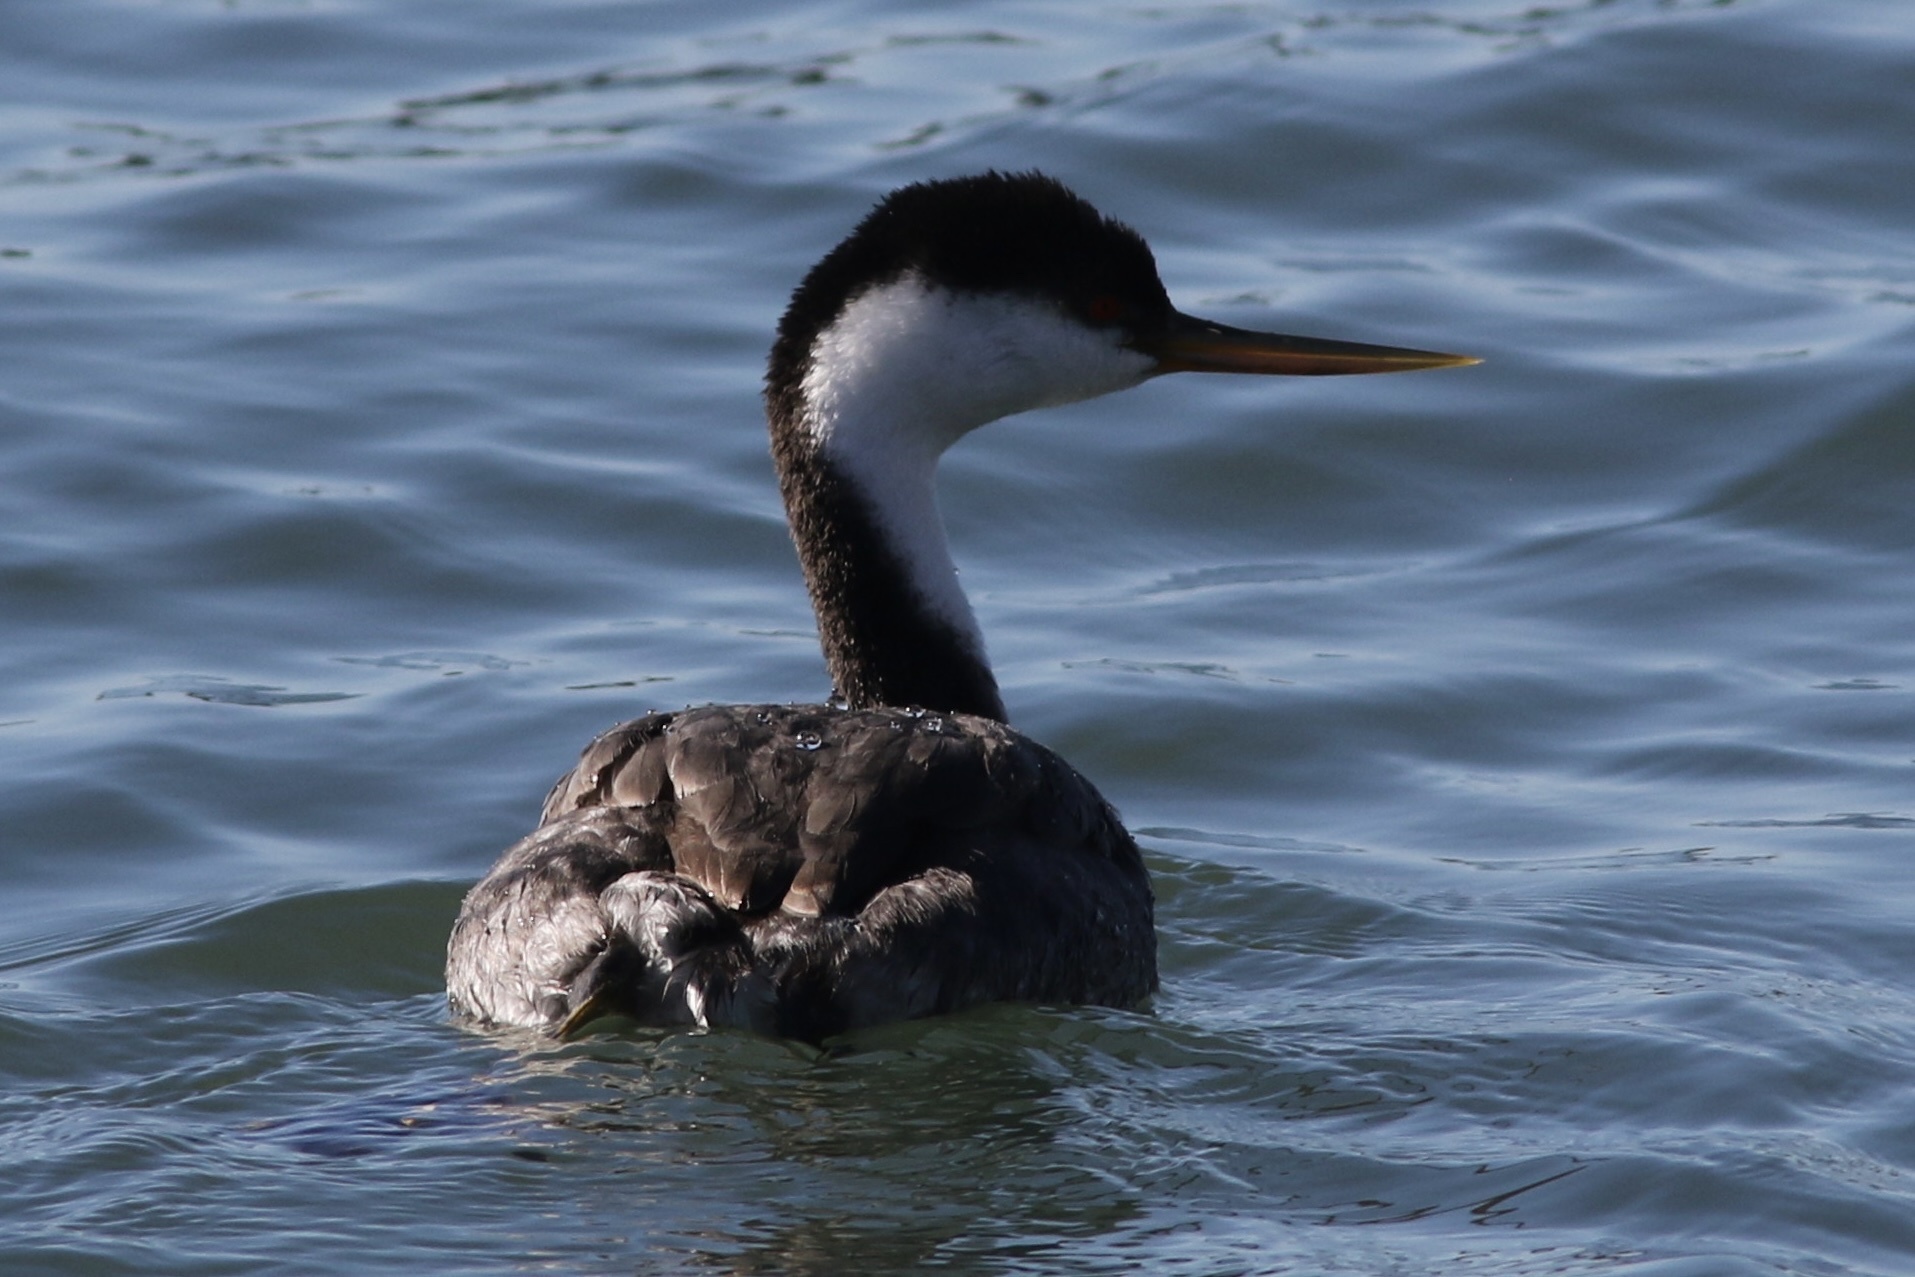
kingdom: Animalia
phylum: Chordata
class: Aves
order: Podicipediformes
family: Podicipedidae
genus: Aechmophorus
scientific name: Aechmophorus occidentalis
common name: Western grebe
